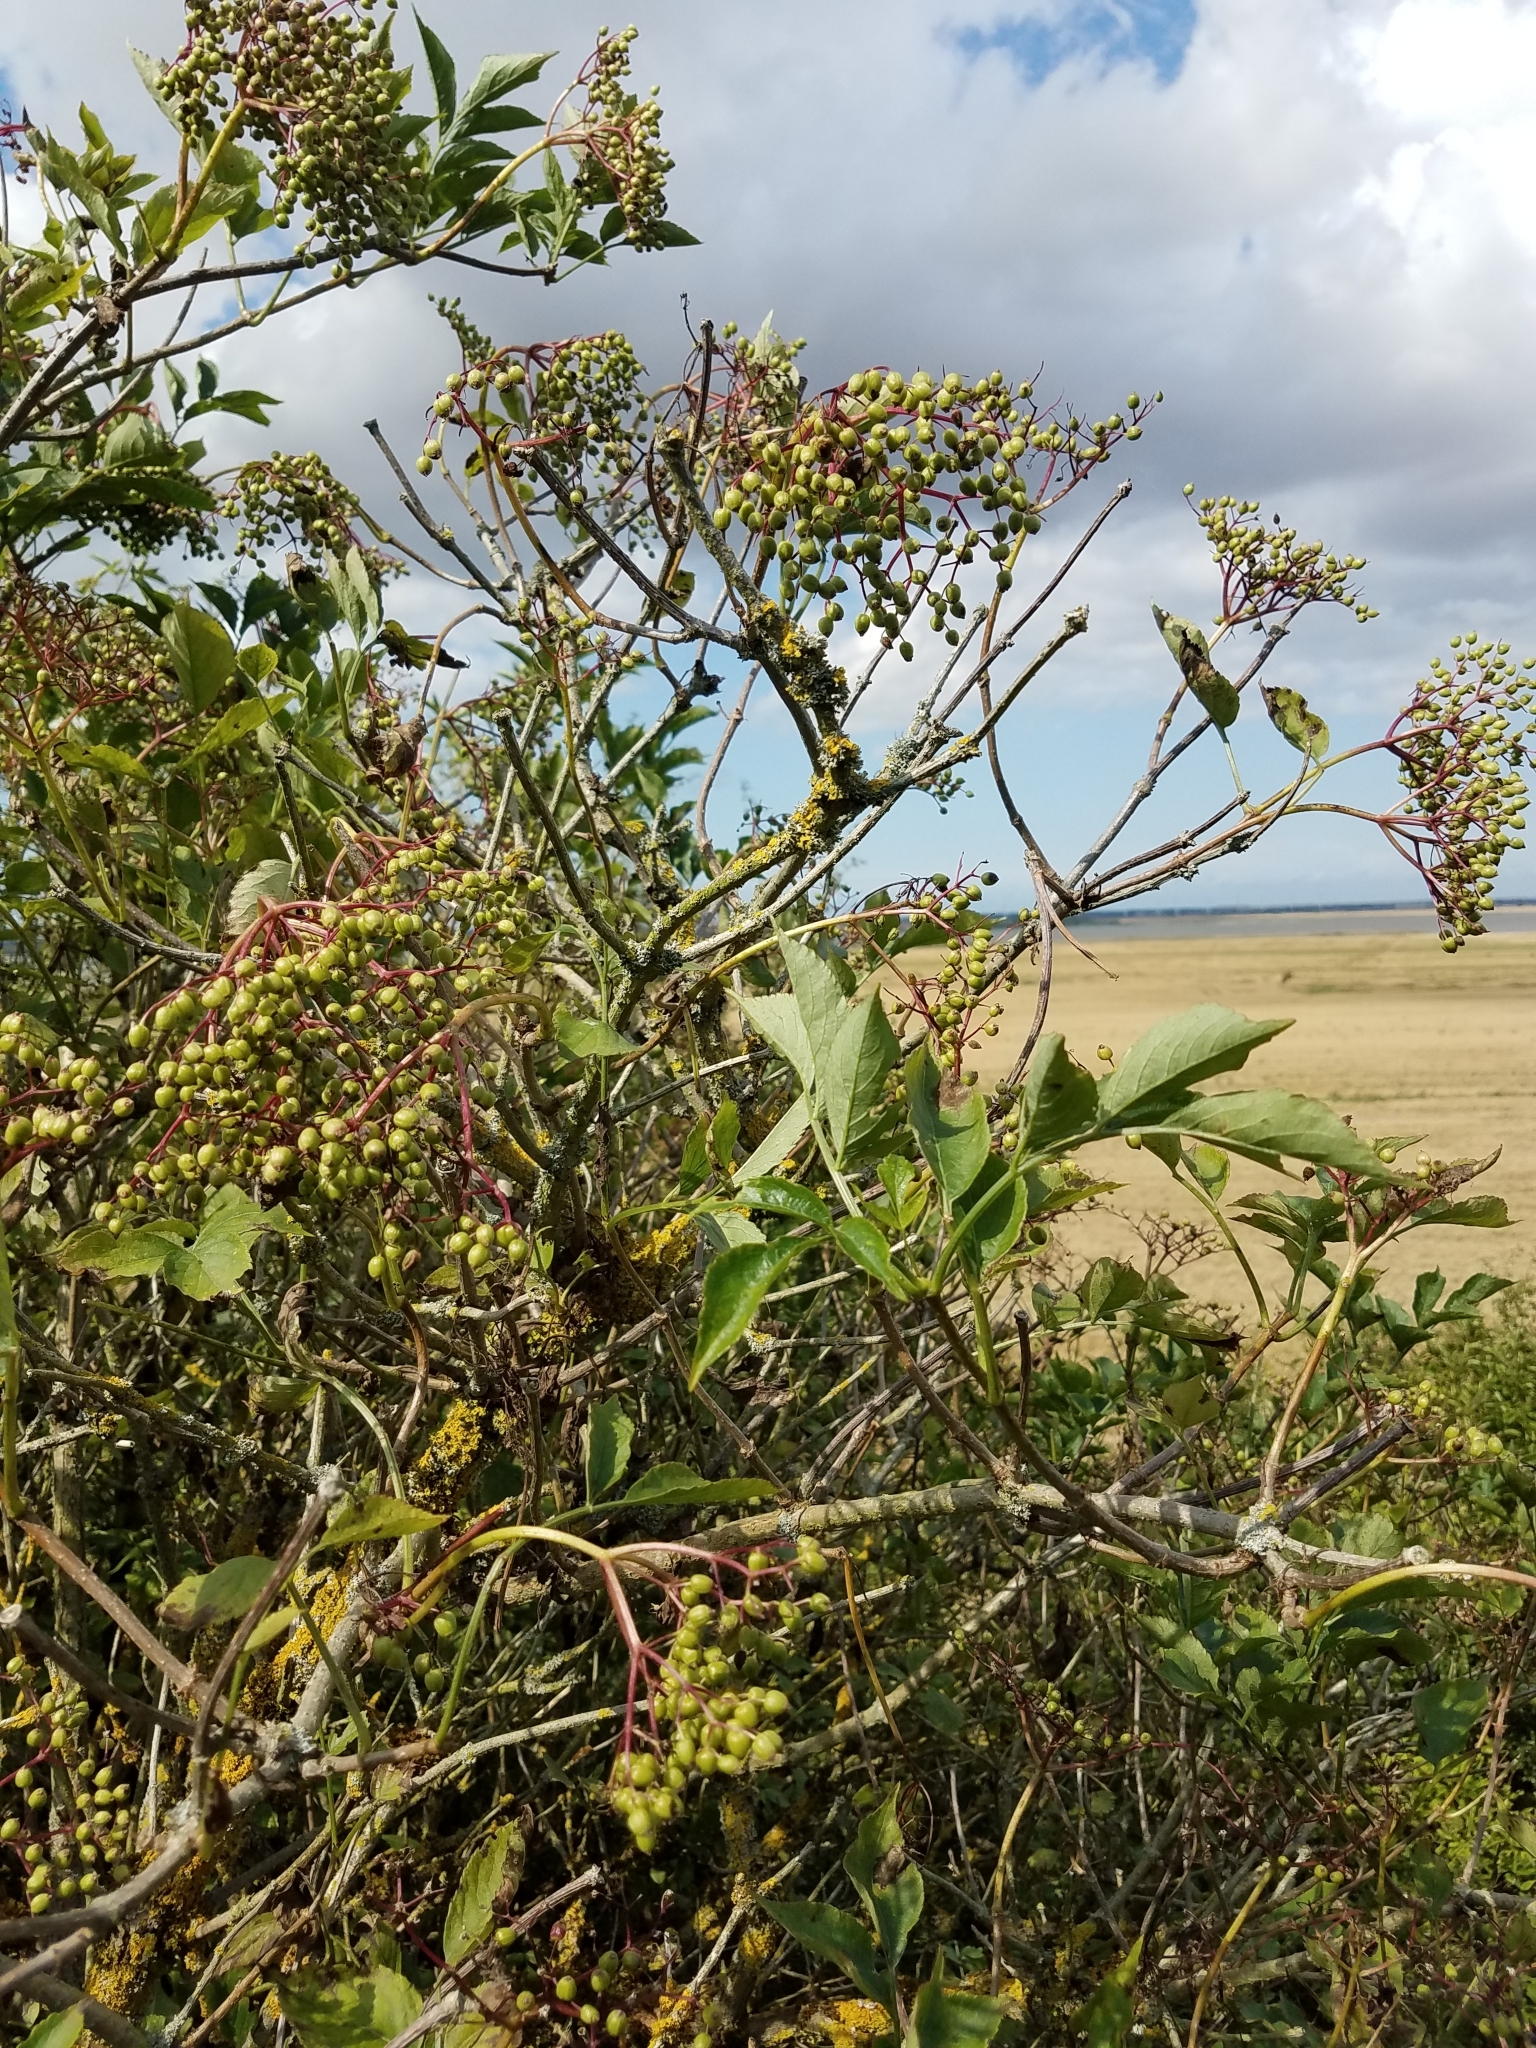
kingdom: Plantae
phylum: Tracheophyta
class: Magnoliopsida
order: Dipsacales
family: Viburnaceae
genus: Sambucus
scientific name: Sambucus nigra
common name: Elder
